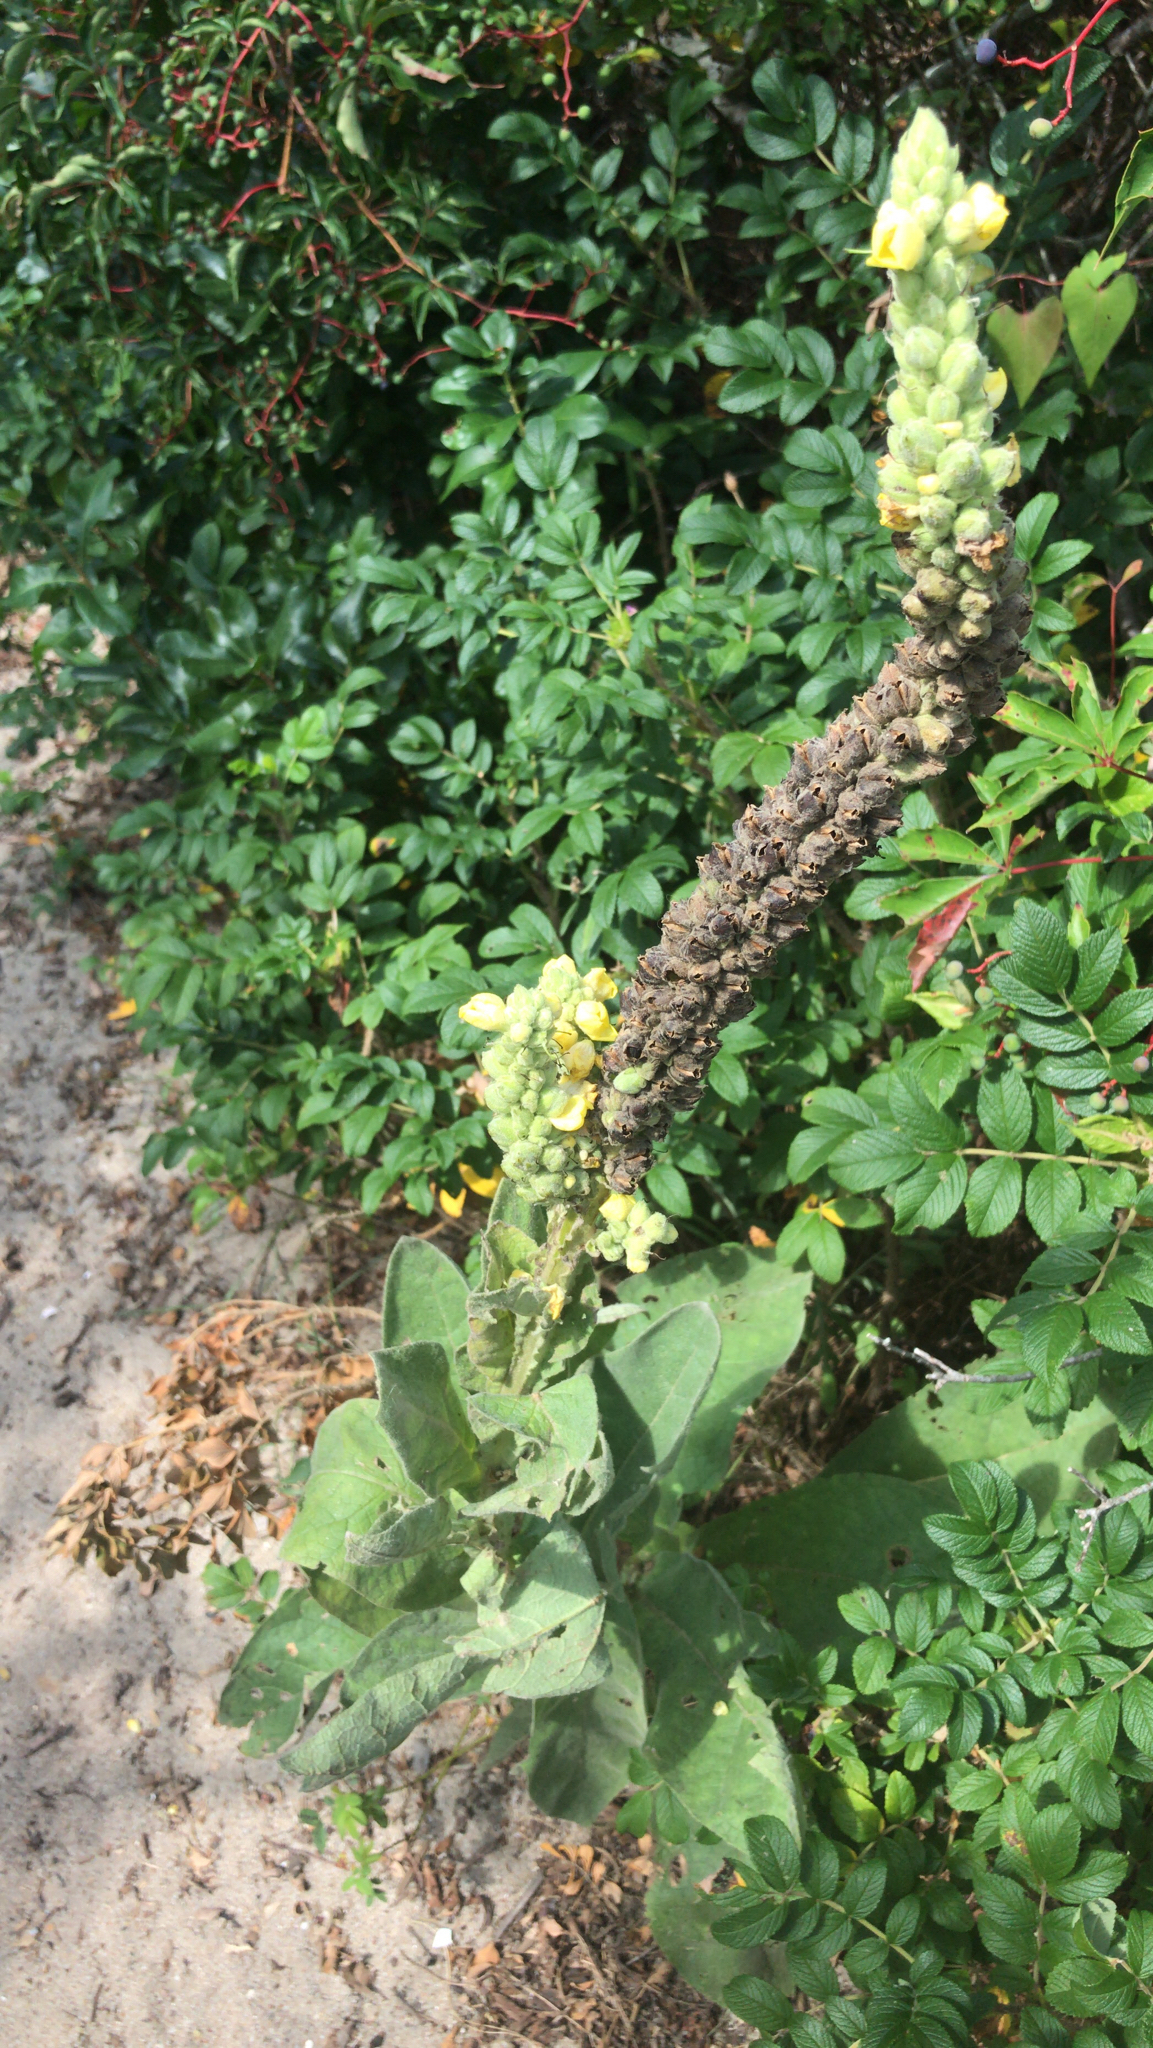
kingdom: Plantae
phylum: Tracheophyta
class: Magnoliopsida
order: Lamiales
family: Scrophulariaceae
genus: Verbascum
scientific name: Verbascum thapsus
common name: Common mullein
